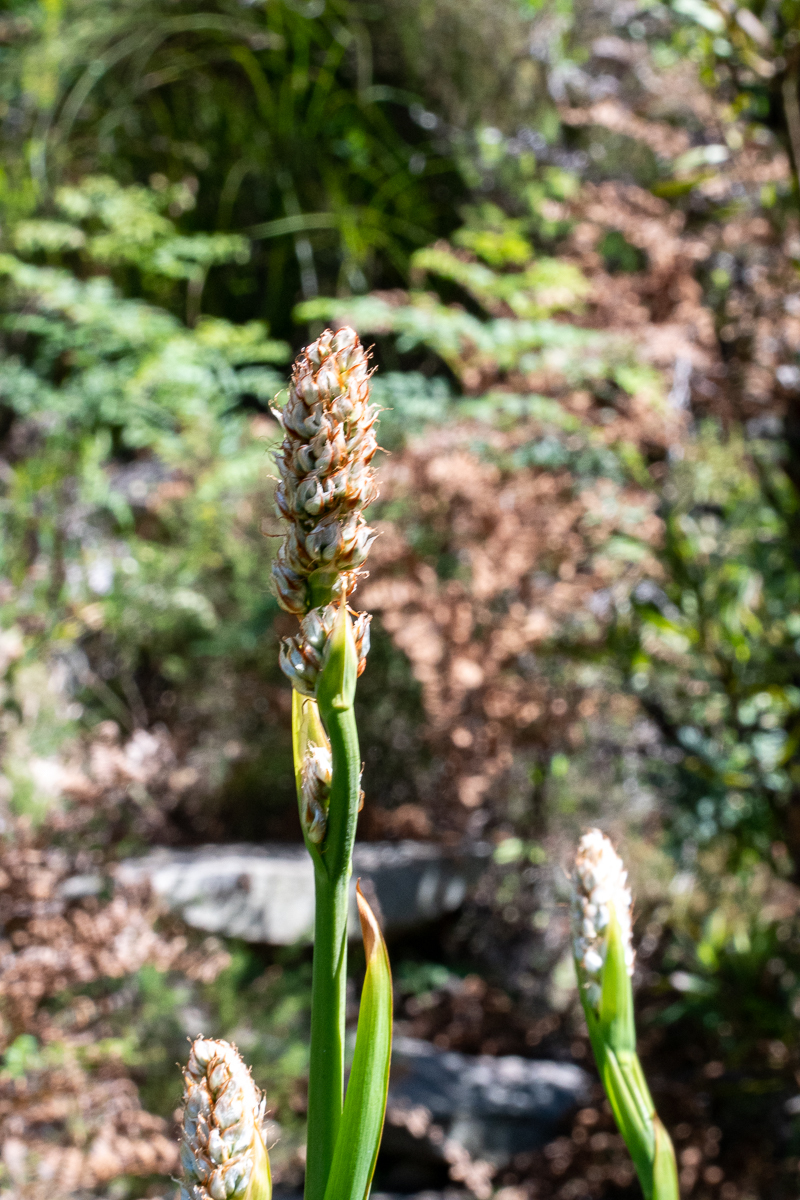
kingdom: Plantae
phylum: Tracheophyta
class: Liliopsida
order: Asparagales
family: Iridaceae
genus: Aristea
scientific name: Aristea capitata
